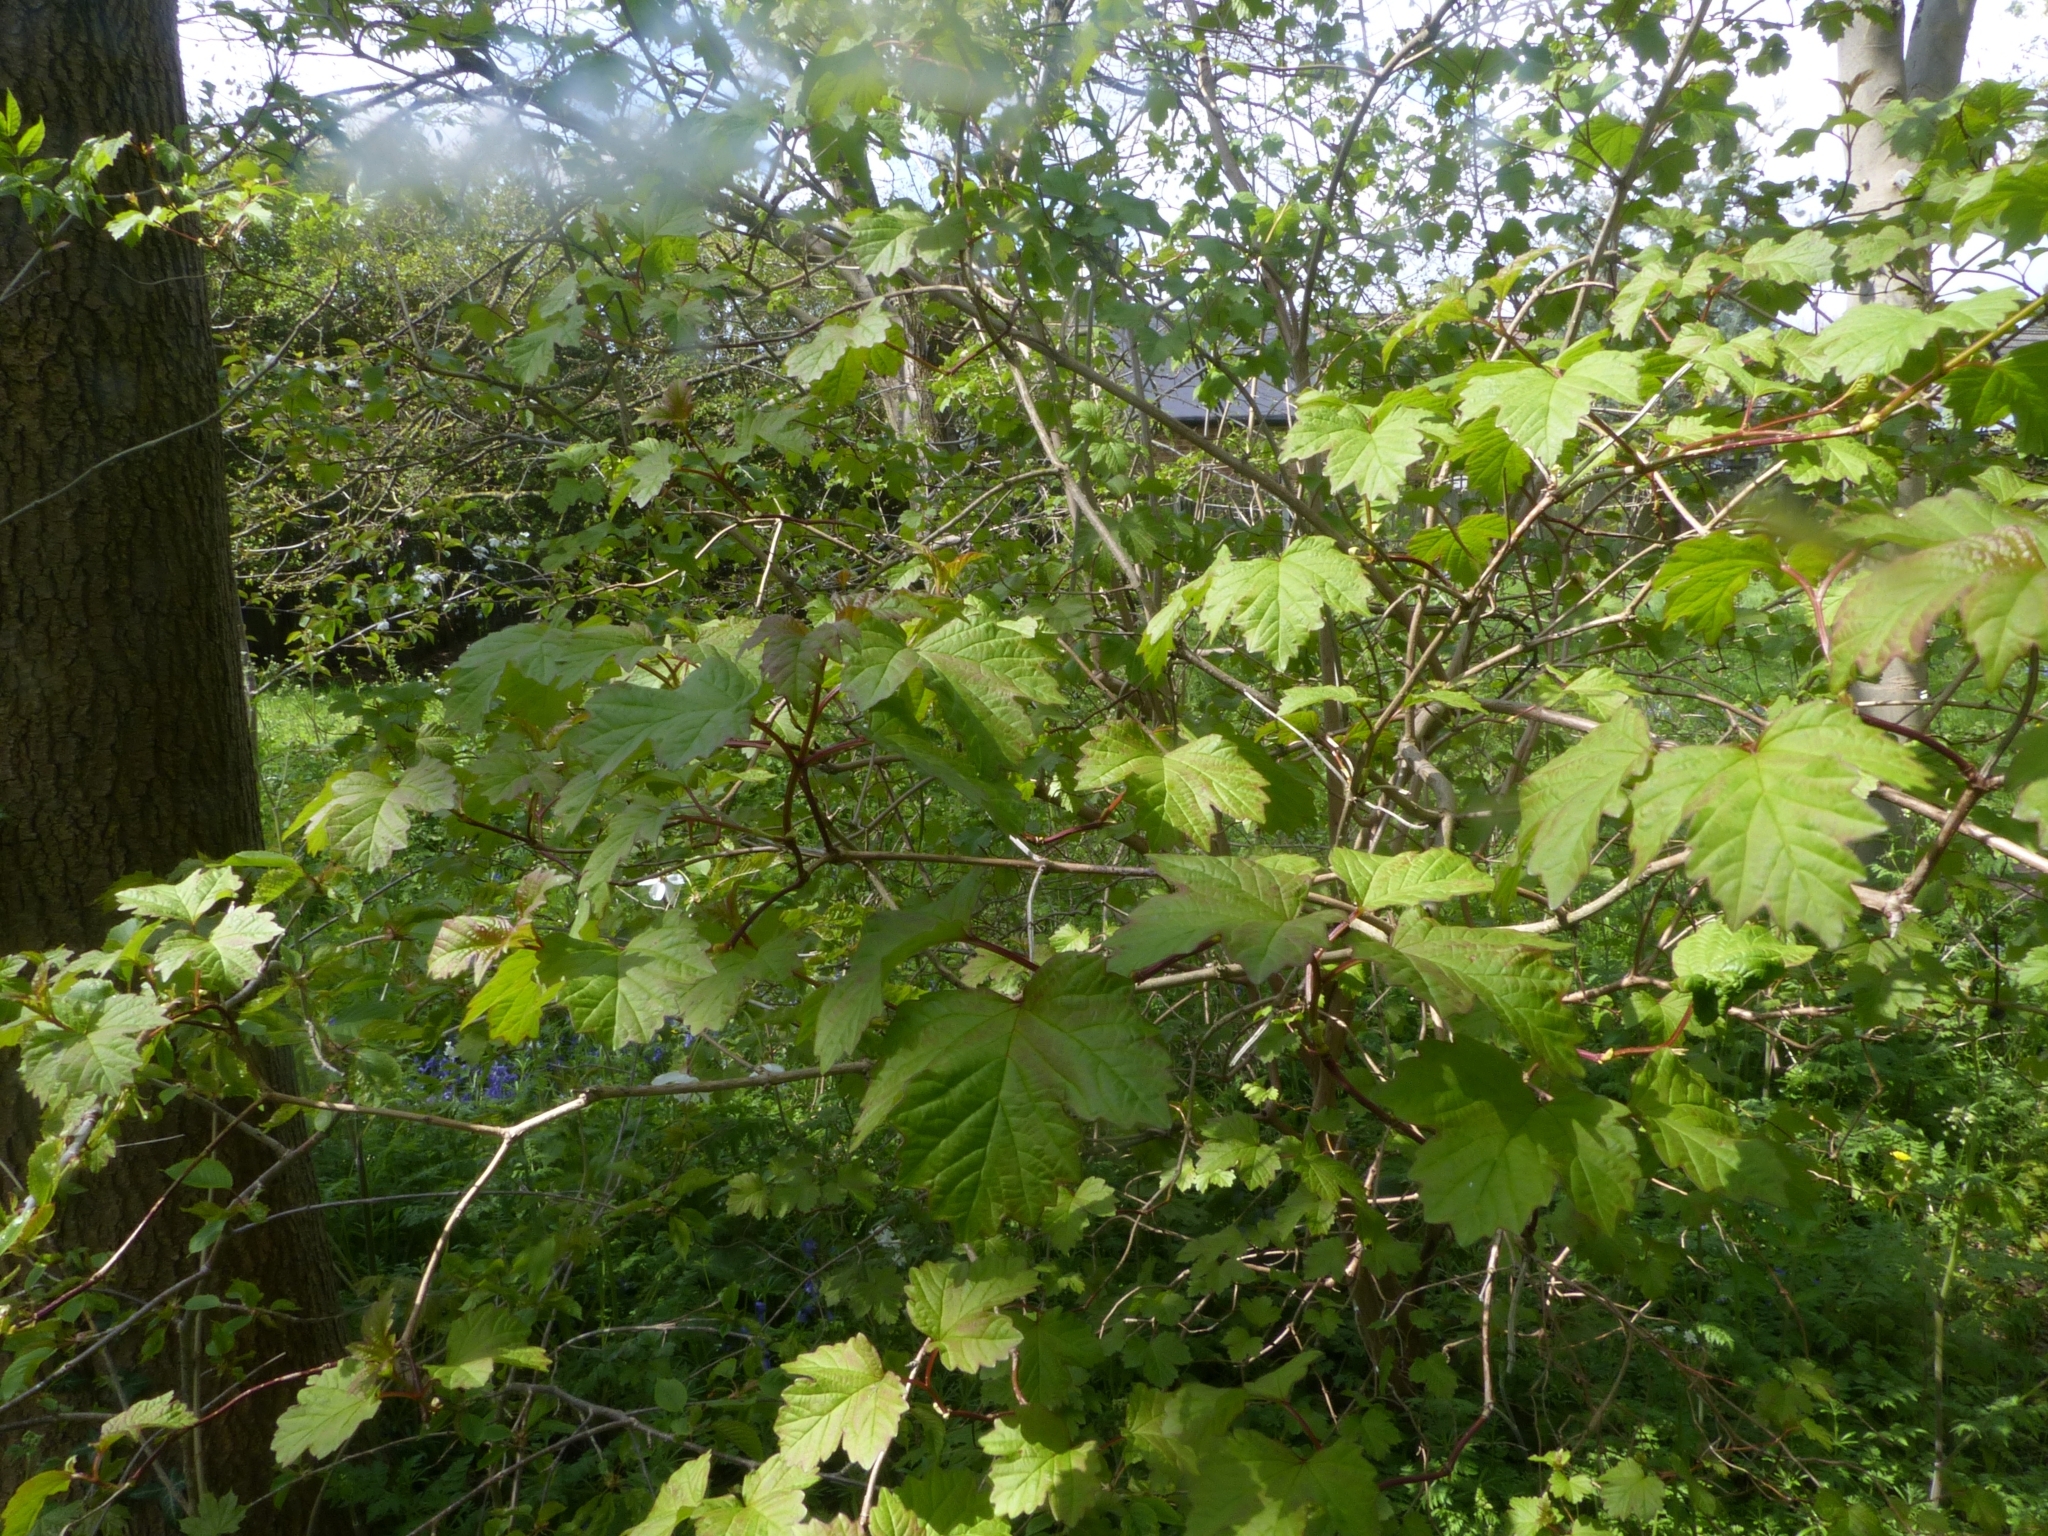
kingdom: Plantae
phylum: Tracheophyta
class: Magnoliopsida
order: Dipsacales
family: Viburnaceae
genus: Viburnum
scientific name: Viburnum opulus
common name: Guelder-rose
